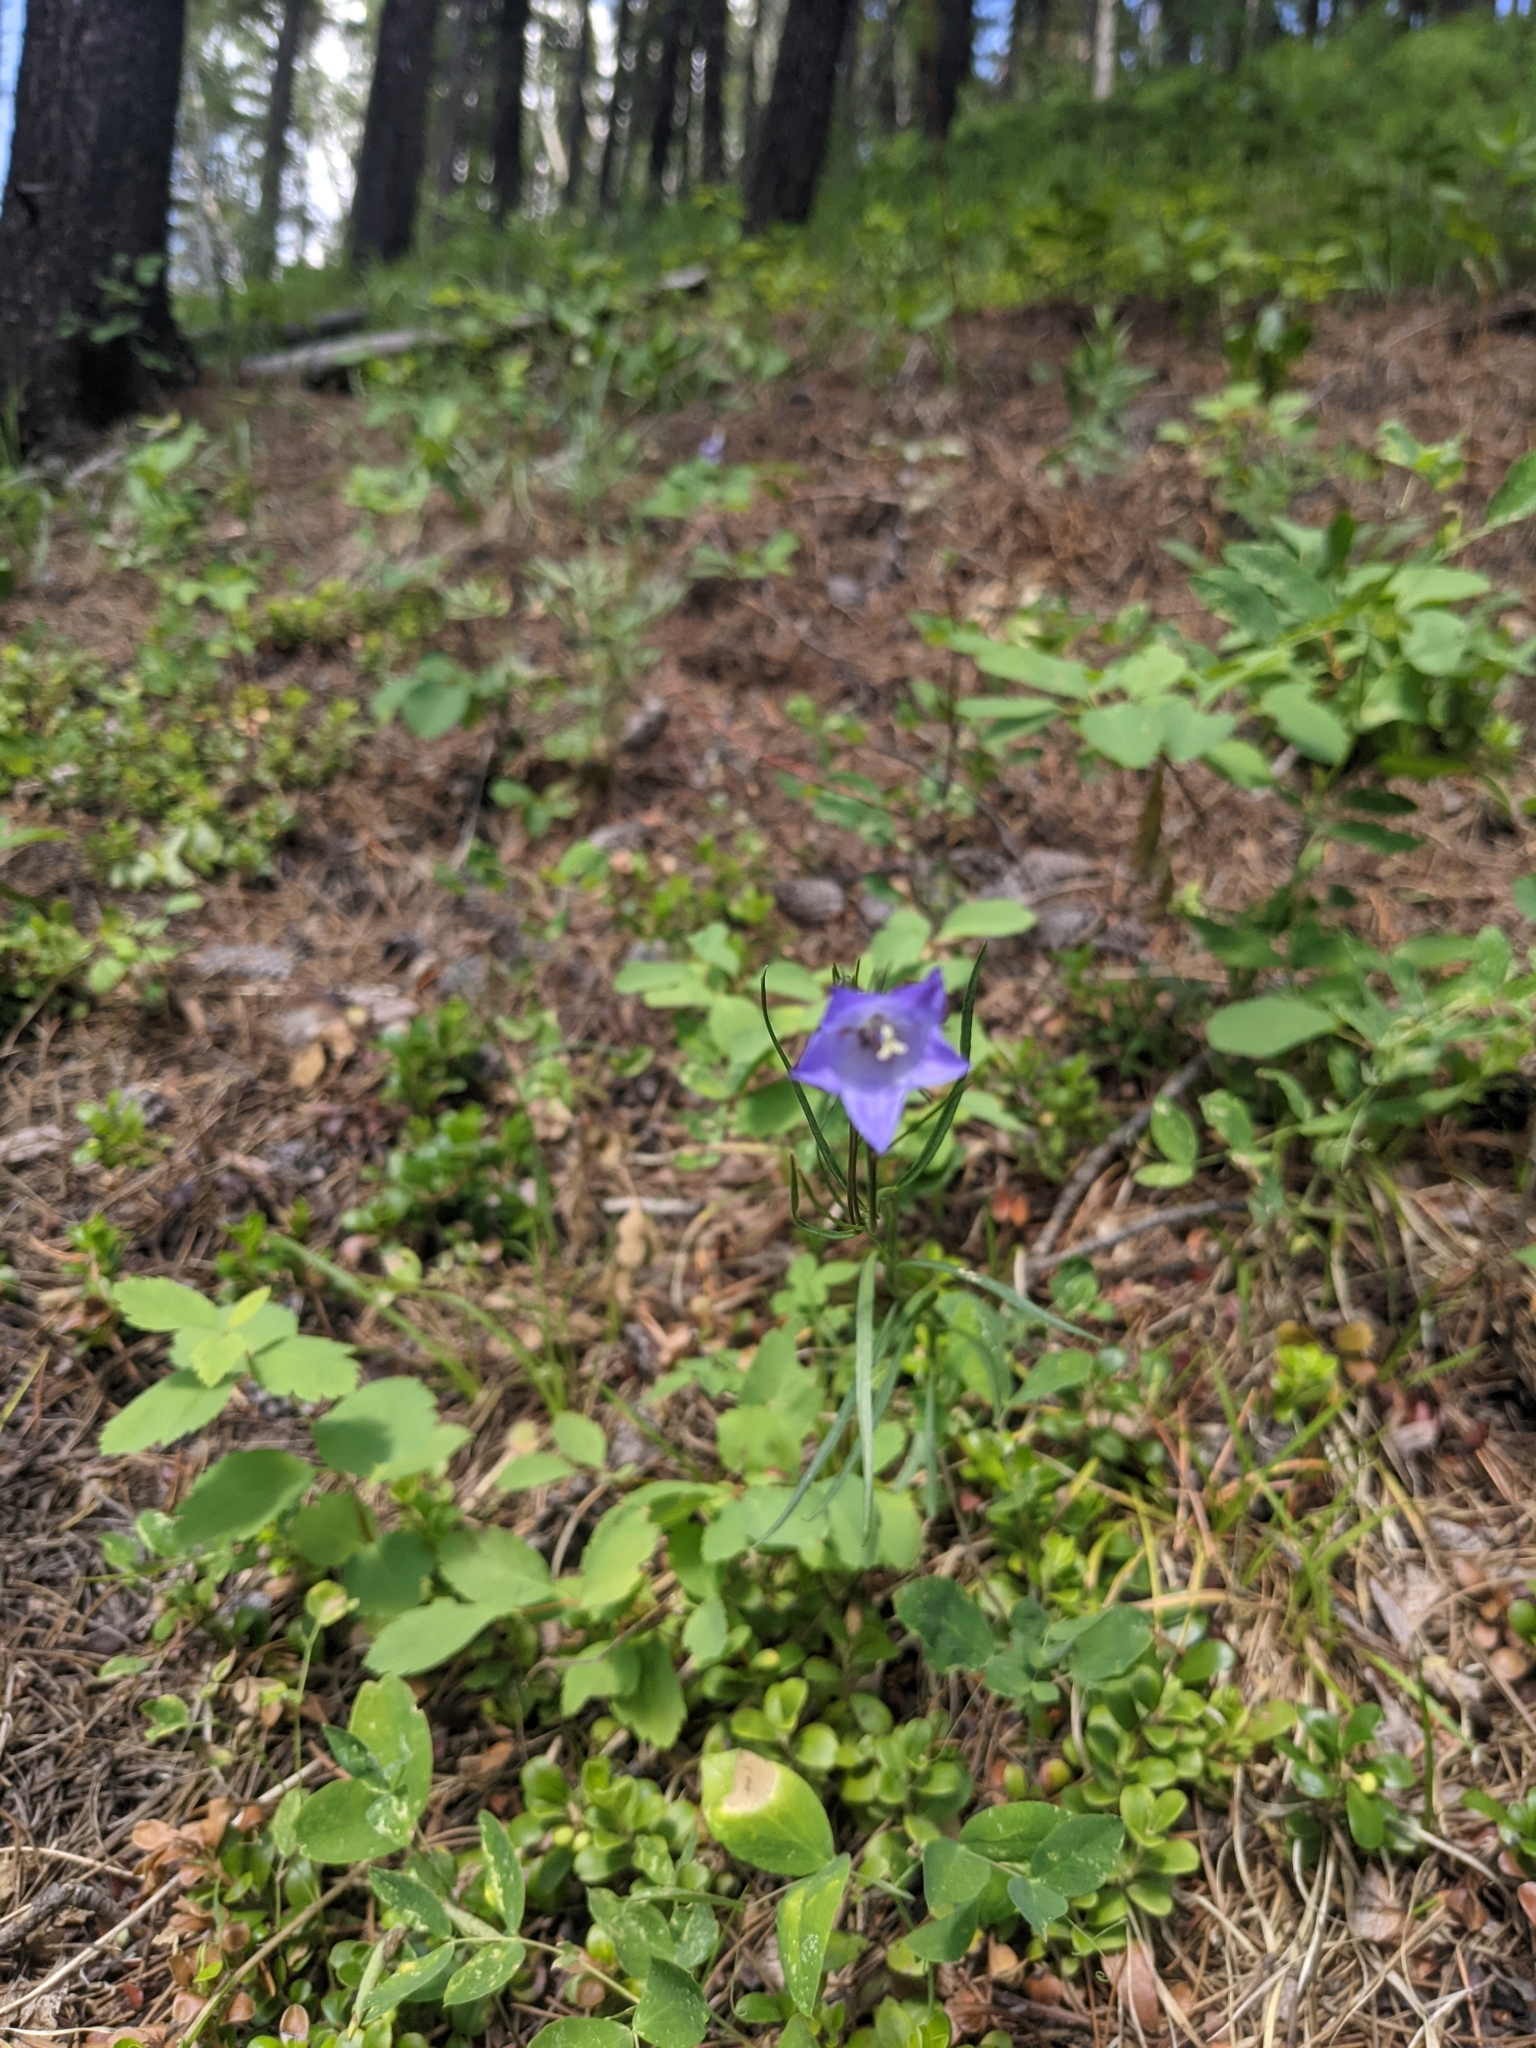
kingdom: Plantae
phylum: Tracheophyta
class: Magnoliopsida
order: Asterales
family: Campanulaceae
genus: Campanula
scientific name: Campanula alaskana
